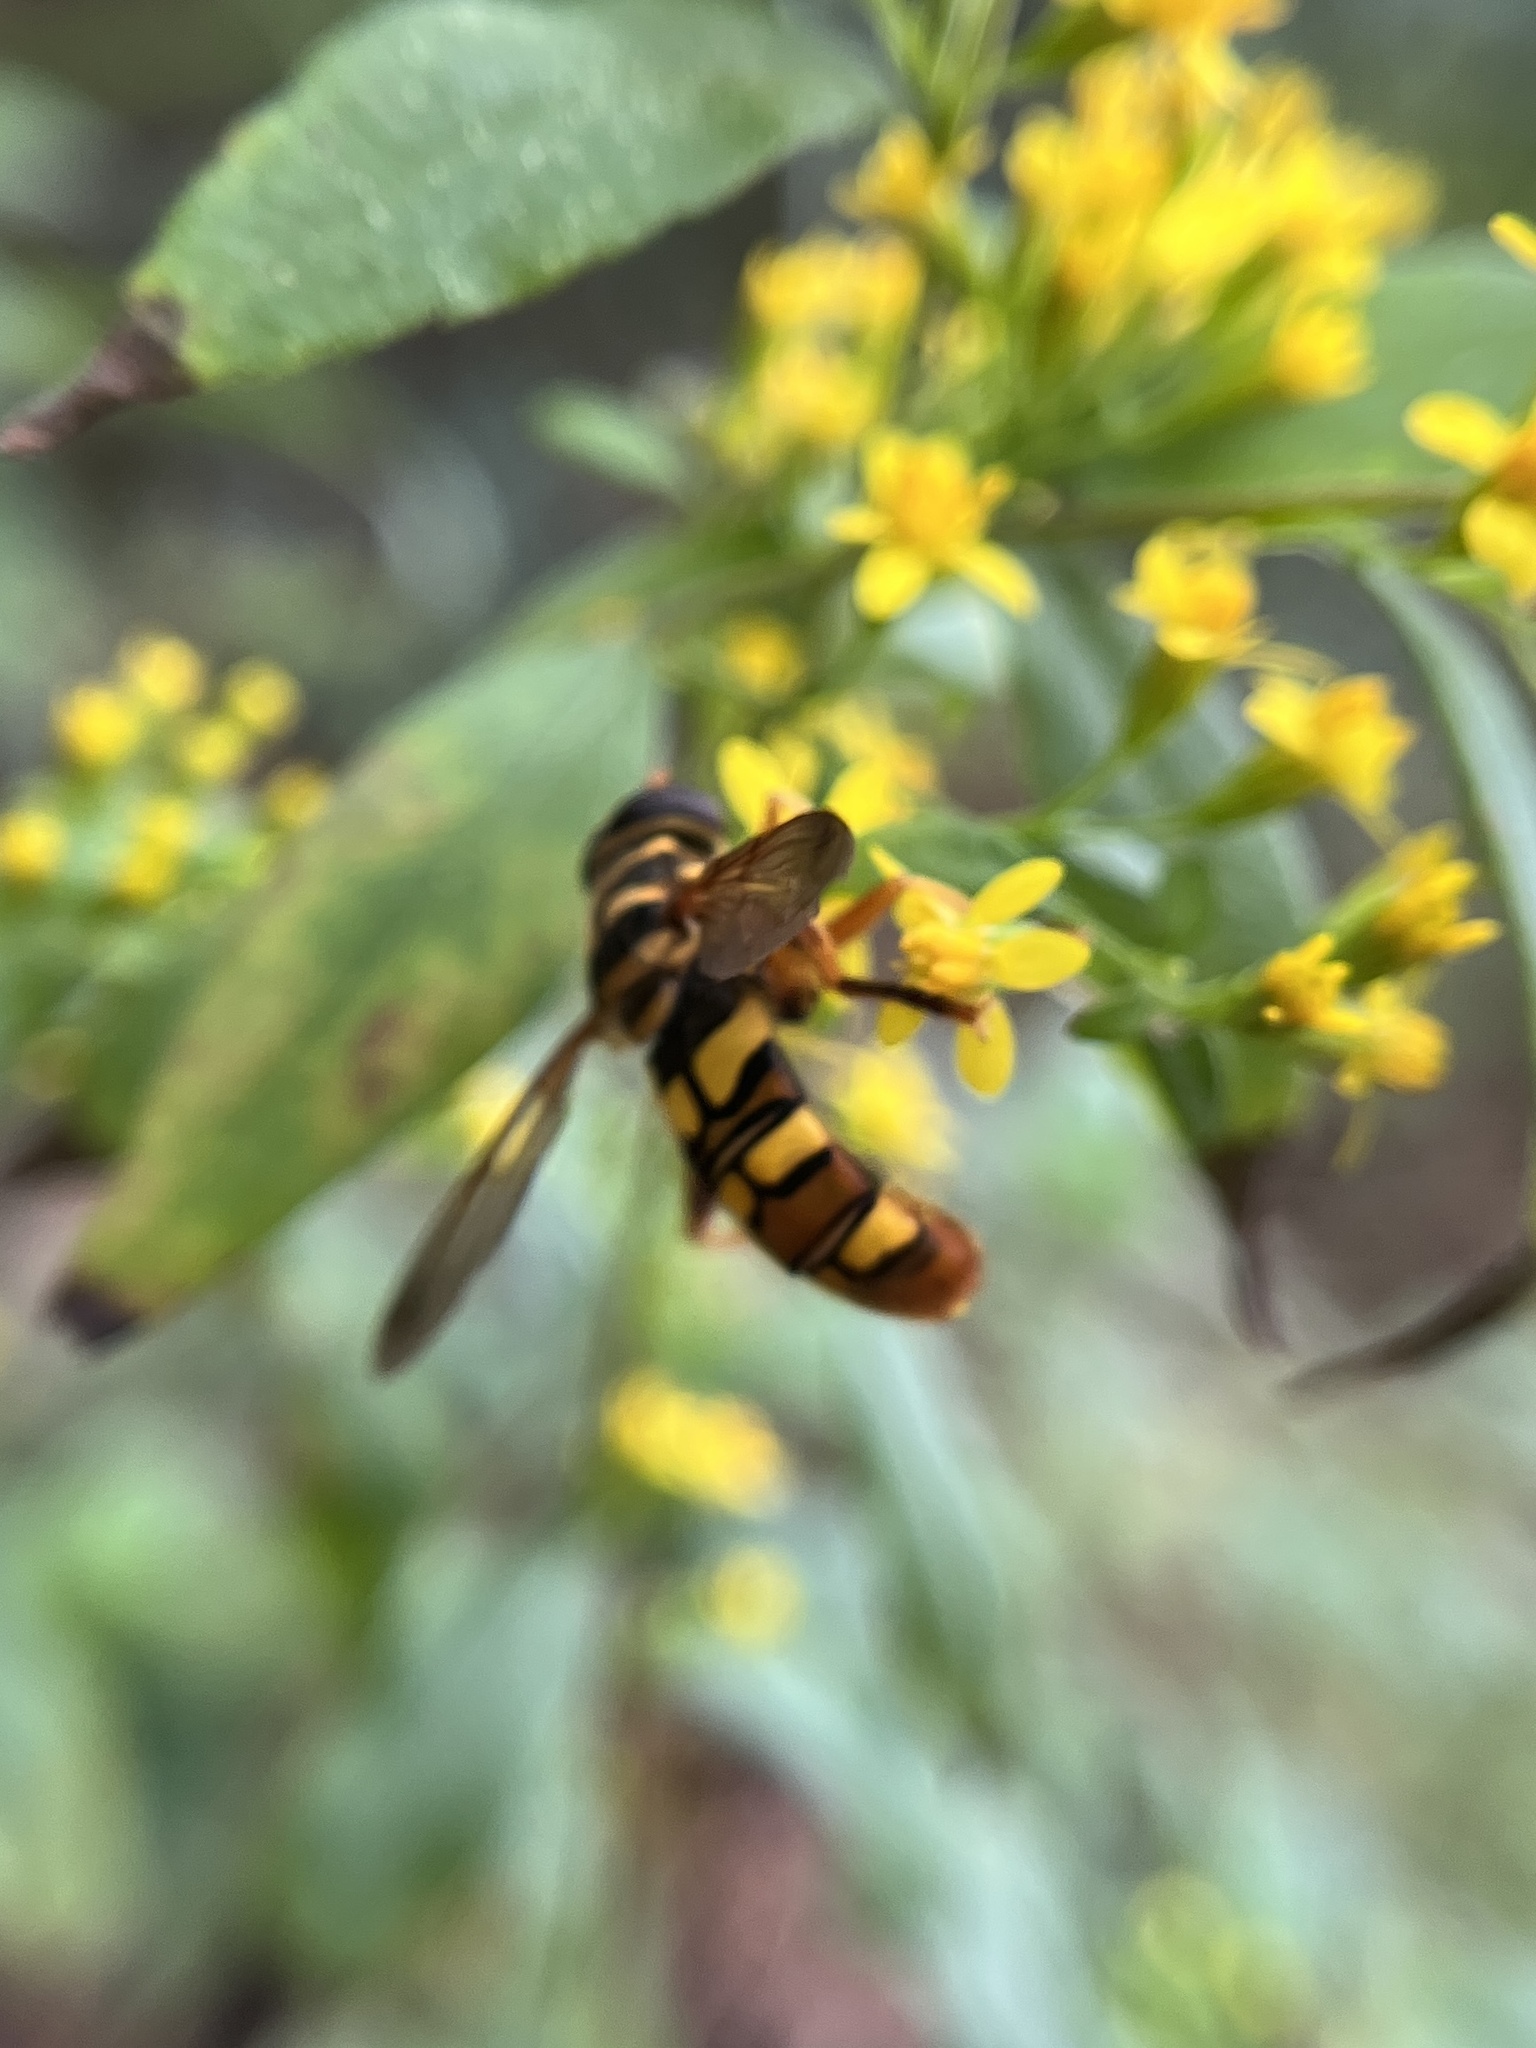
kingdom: Animalia
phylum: Arthropoda
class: Insecta
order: Diptera
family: Syrphidae
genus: Milesia
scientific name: Milesia virginiensis
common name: Virginia giant
